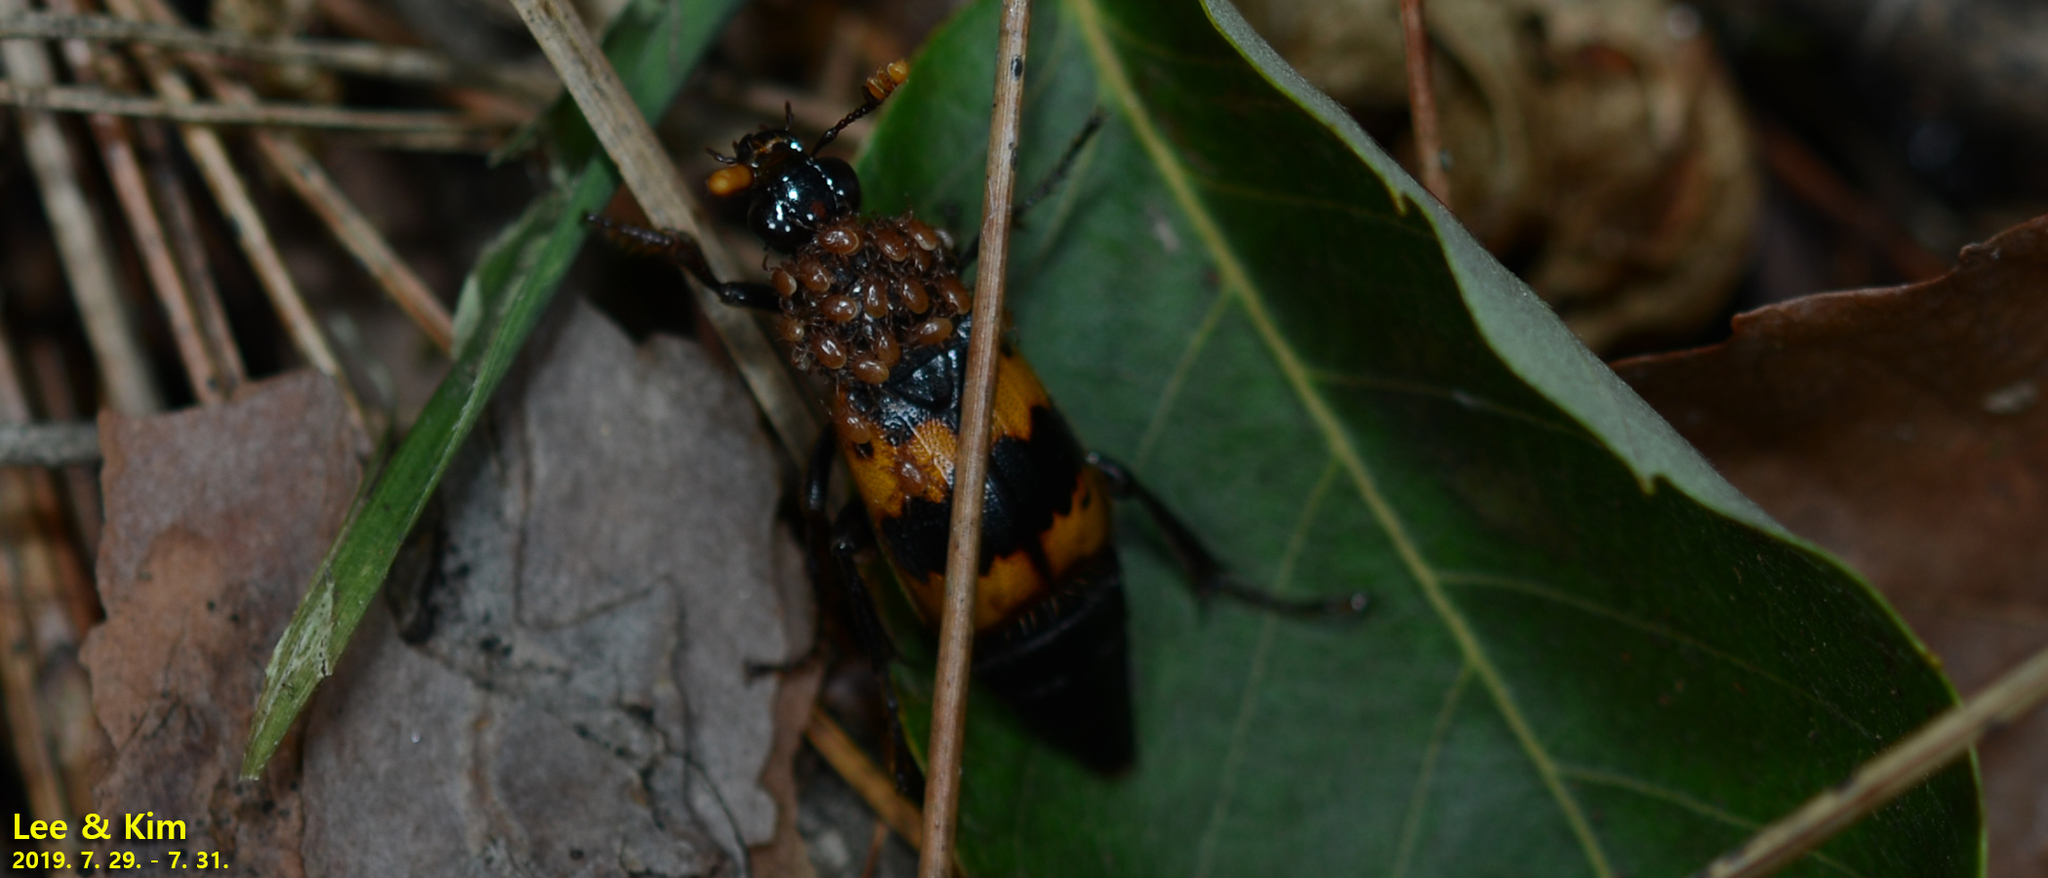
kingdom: Animalia
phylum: Arthropoda
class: Insecta
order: Coleoptera
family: Staphylinidae
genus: Nicrophorus
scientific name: Nicrophorus quadripunctatus
